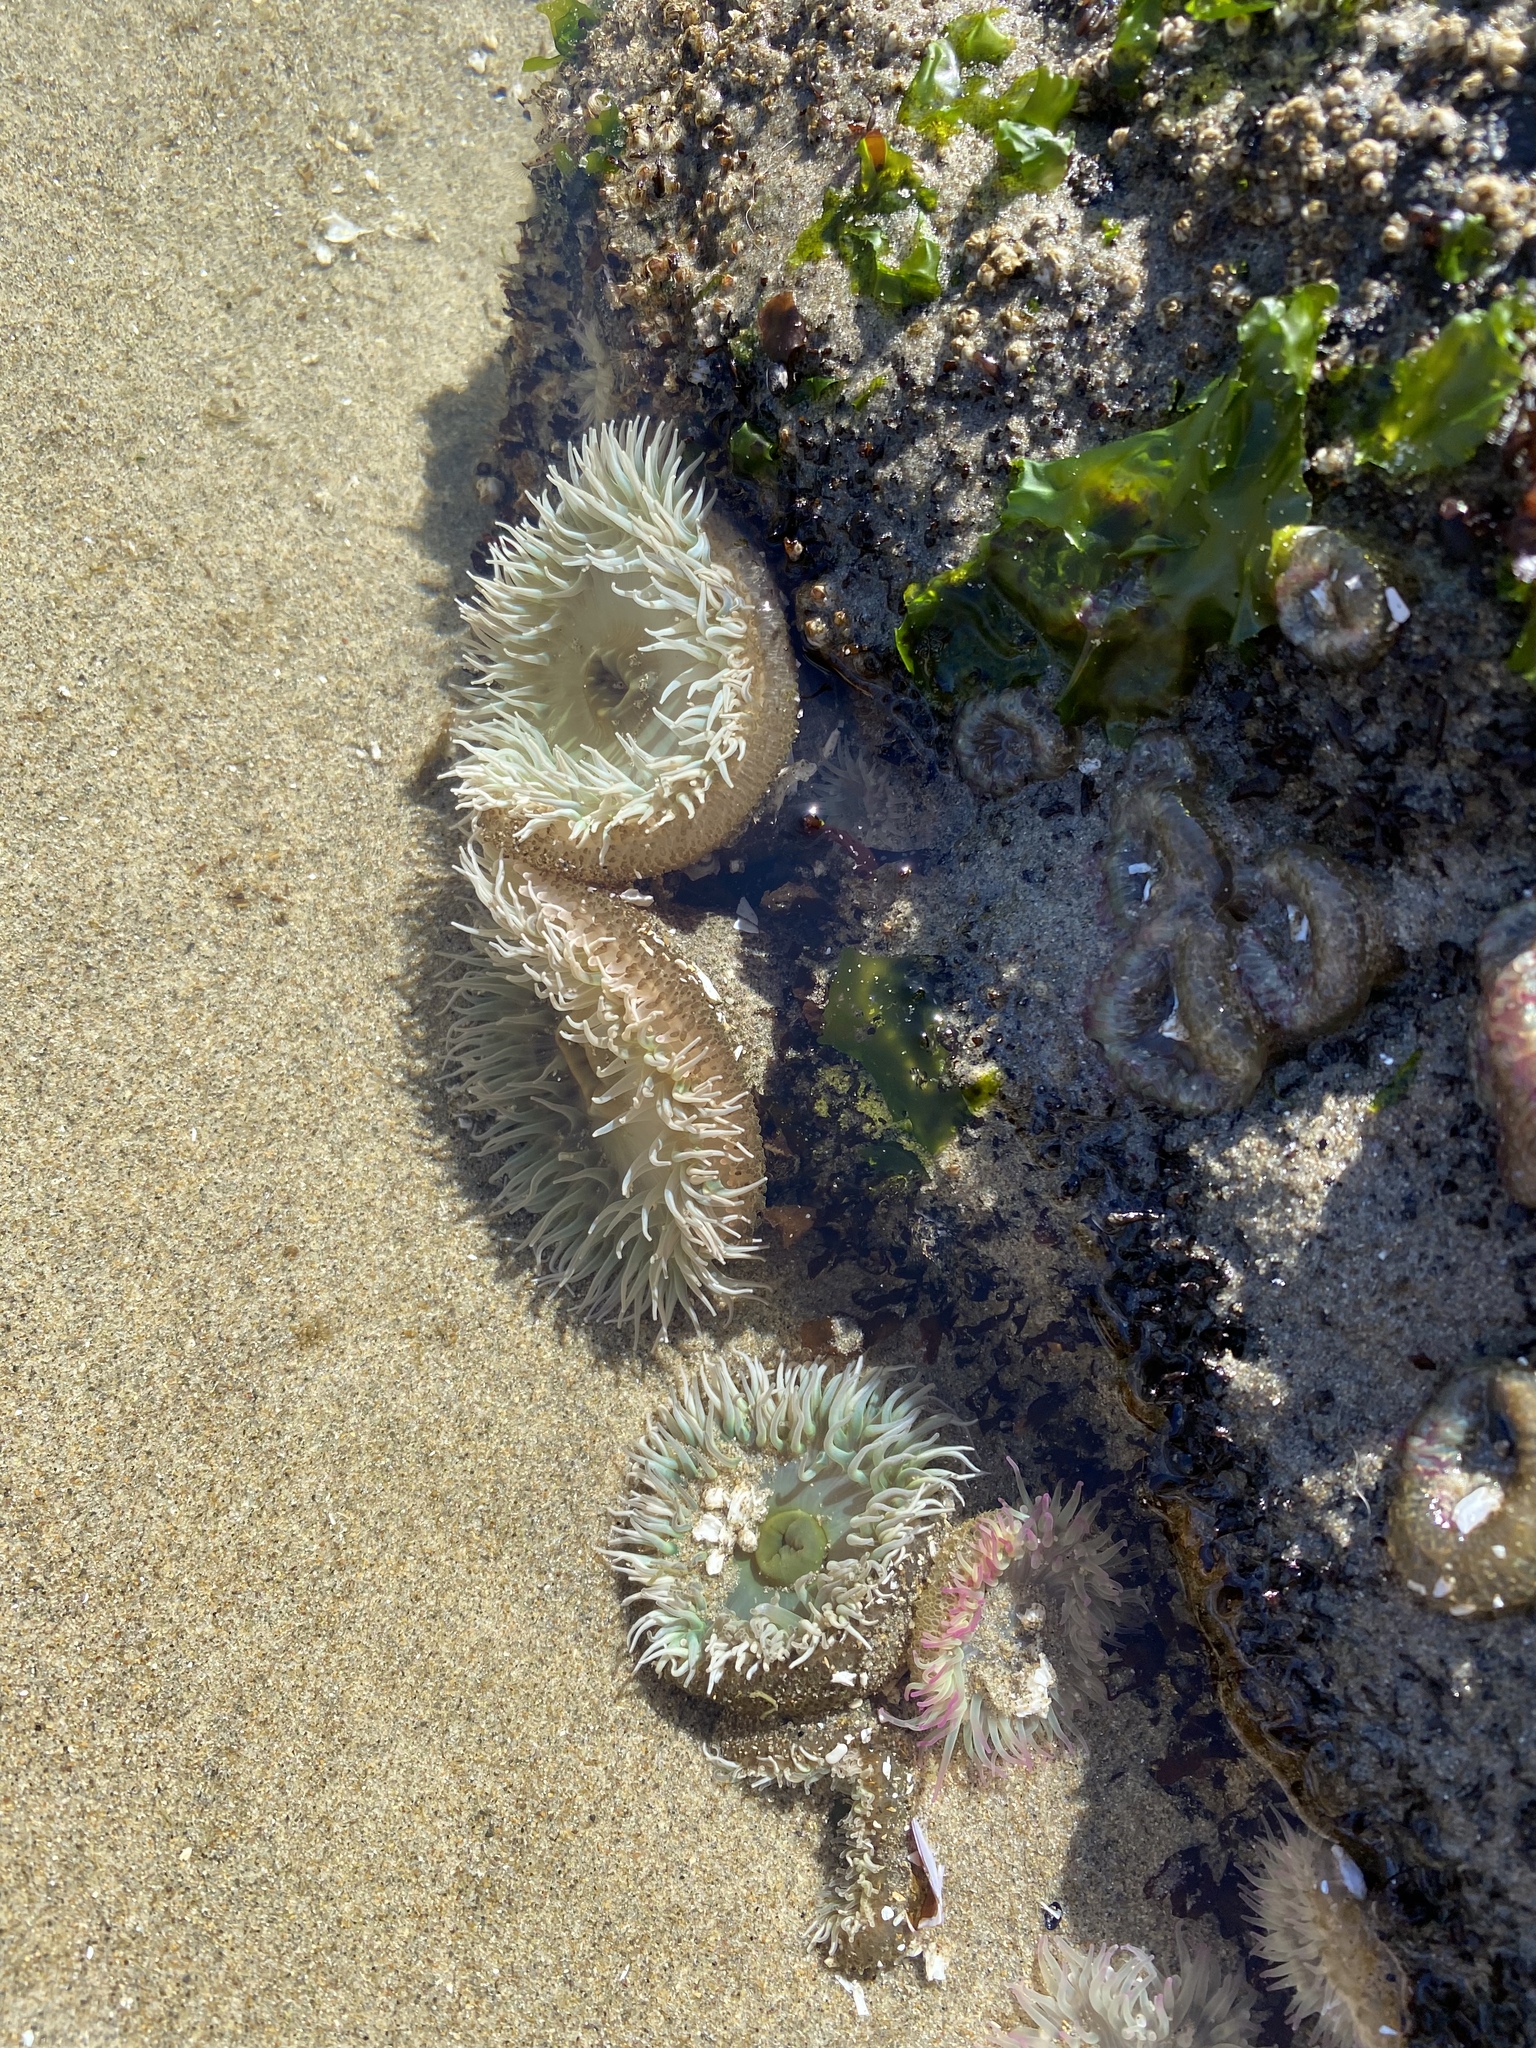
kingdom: Animalia
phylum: Cnidaria
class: Anthozoa
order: Actiniaria
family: Actiniidae
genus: Anthopleura
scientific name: Anthopleura xanthogrammica
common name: Giant green anemone
